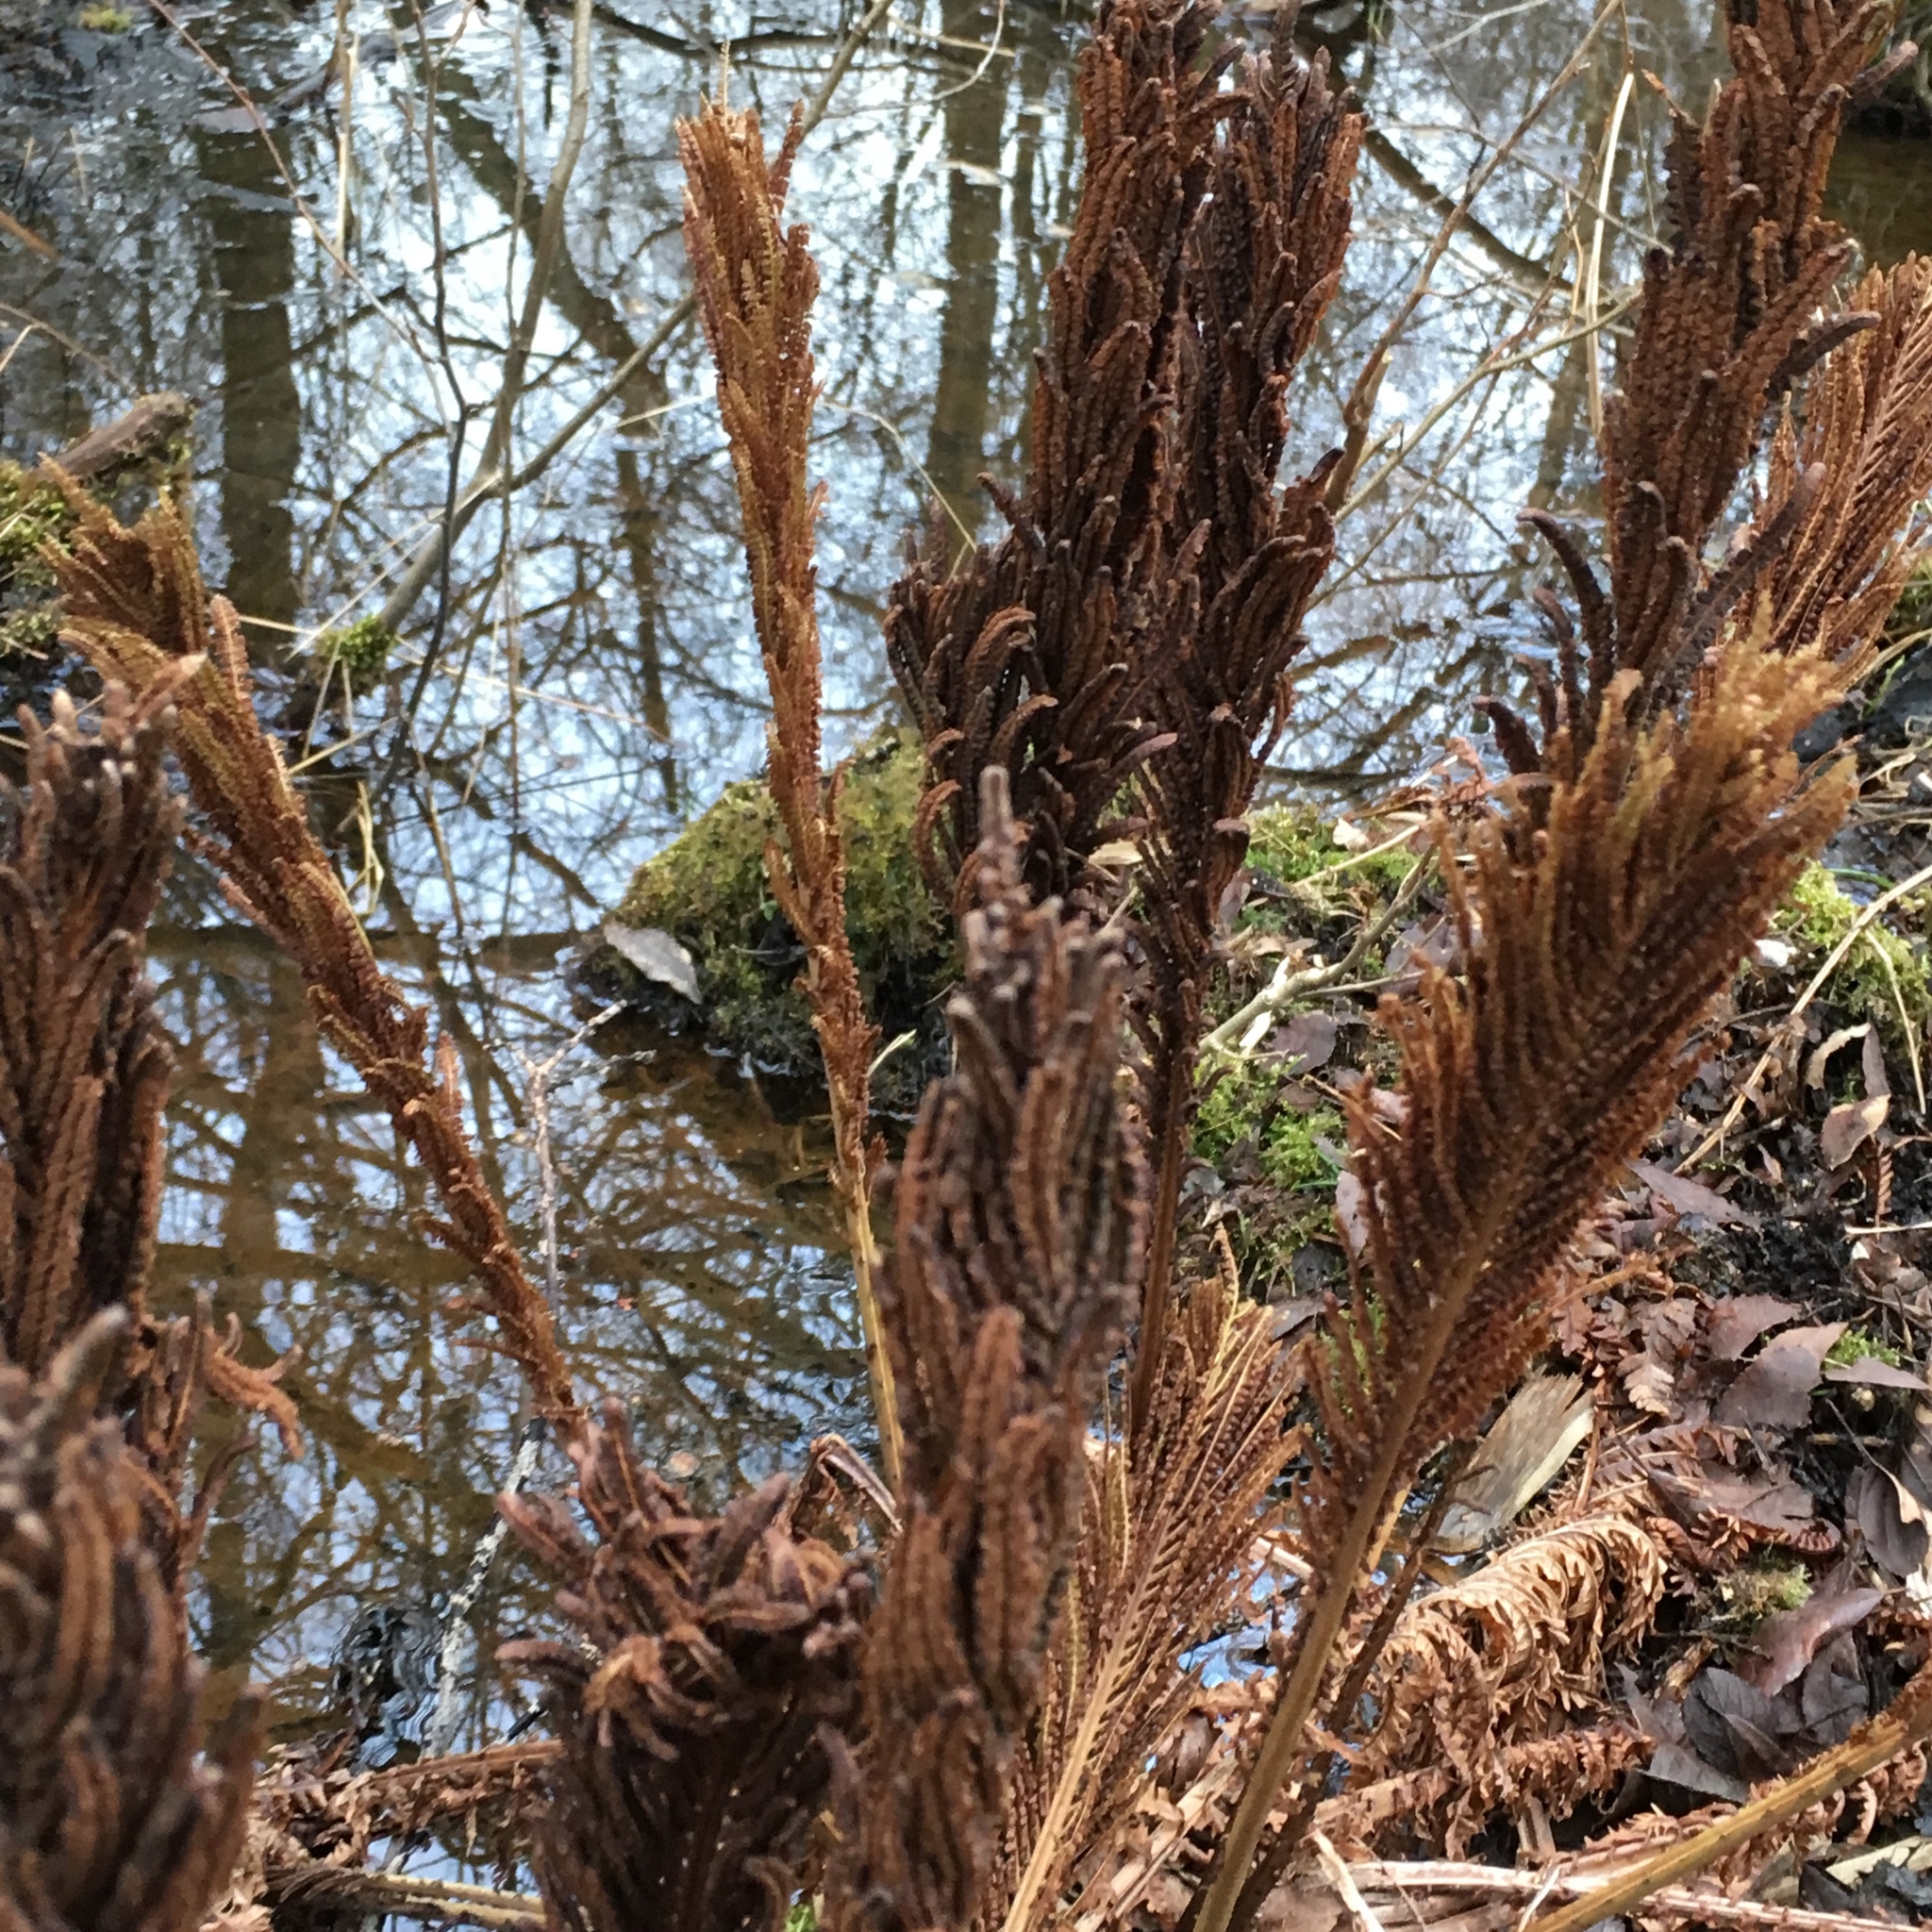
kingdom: Plantae
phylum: Tracheophyta
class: Polypodiopsida
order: Polypodiales
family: Onocleaceae
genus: Matteuccia
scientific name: Matteuccia struthiopteris
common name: Ostrich fern
